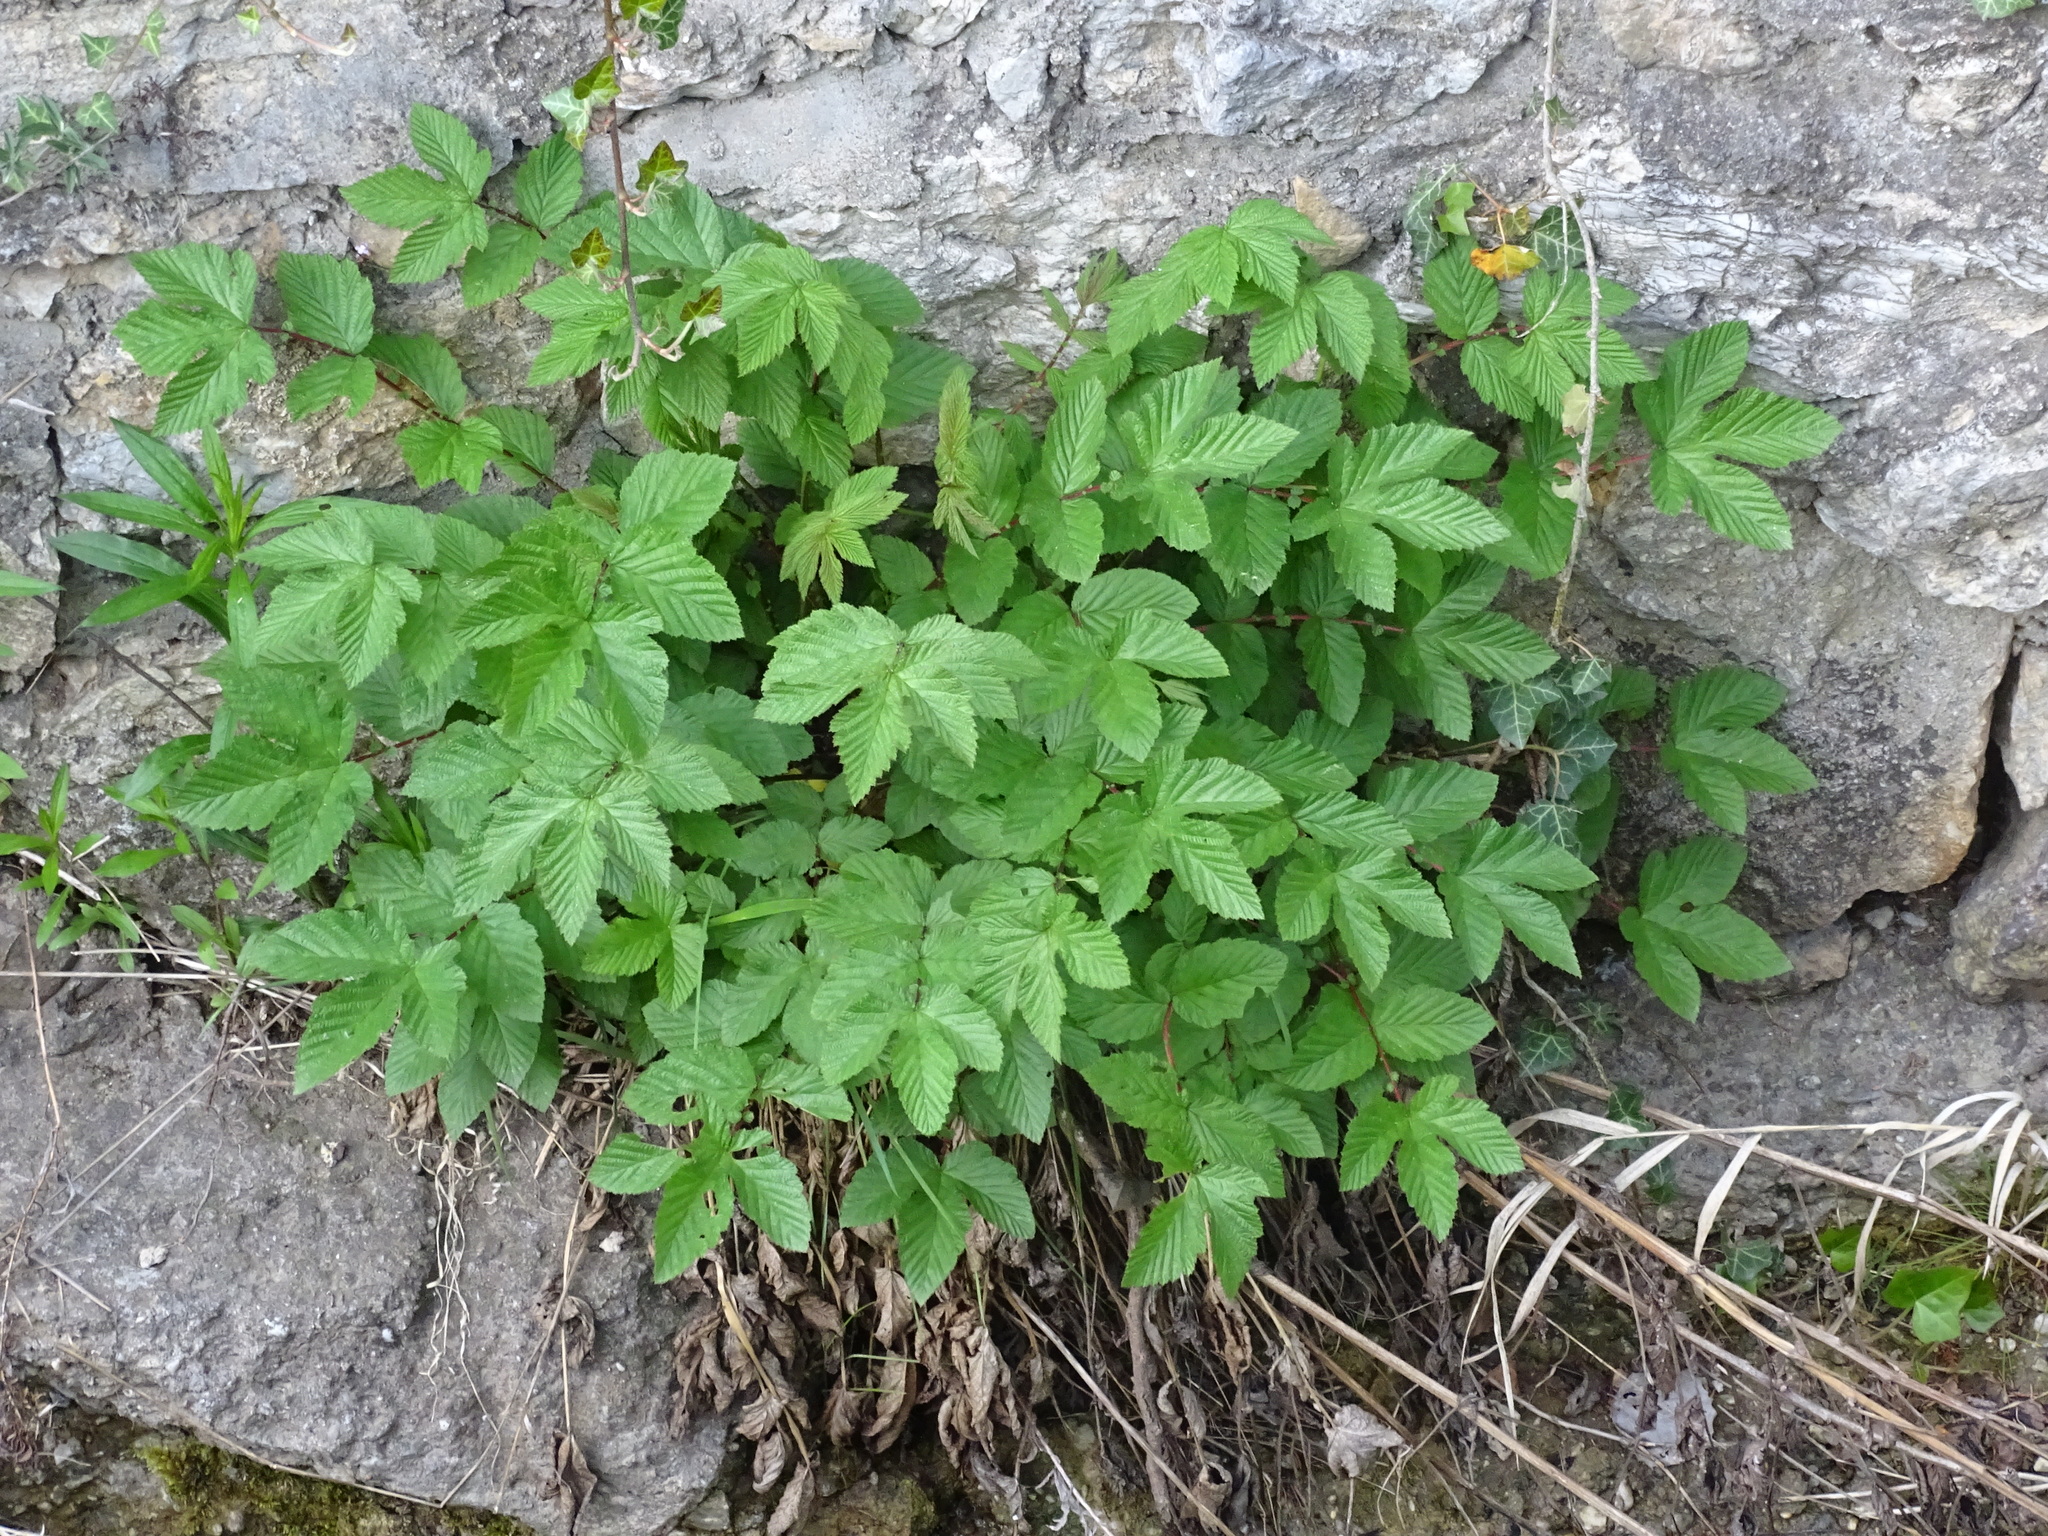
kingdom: Plantae
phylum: Tracheophyta
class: Magnoliopsida
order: Rosales
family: Rosaceae
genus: Filipendula
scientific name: Filipendula ulmaria
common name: Meadowsweet
